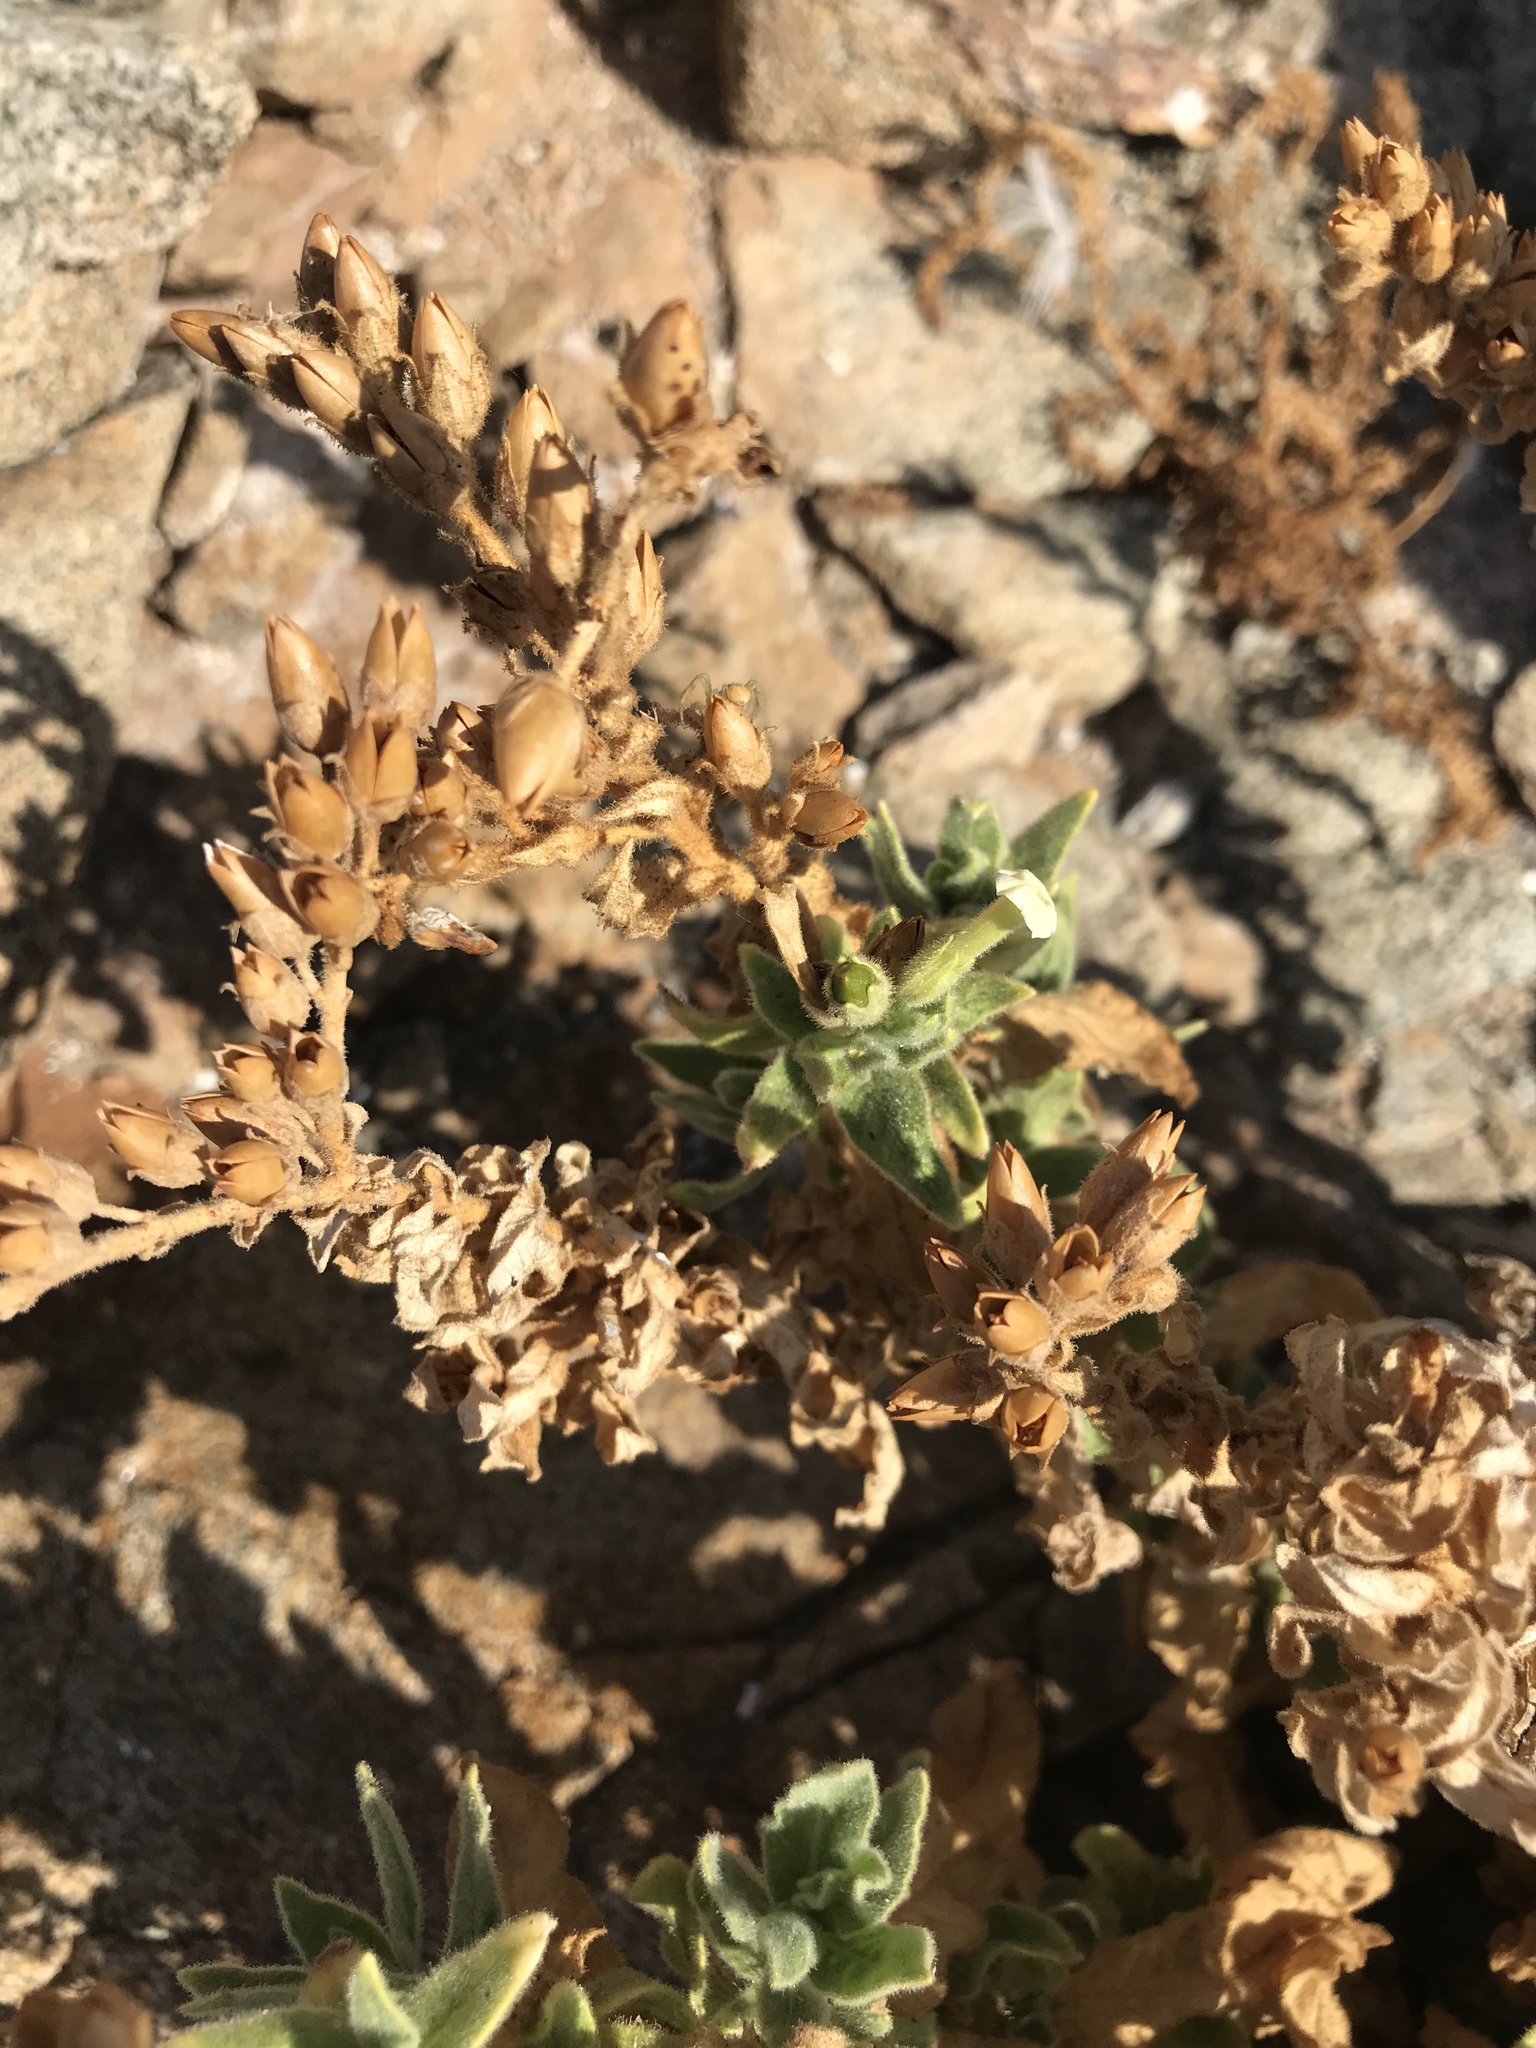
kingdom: Plantae
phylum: Tracheophyta
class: Magnoliopsida
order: Solanales
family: Solanaceae
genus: Nicotiana
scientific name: Nicotiana obtusifolia
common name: Desert tobacco
